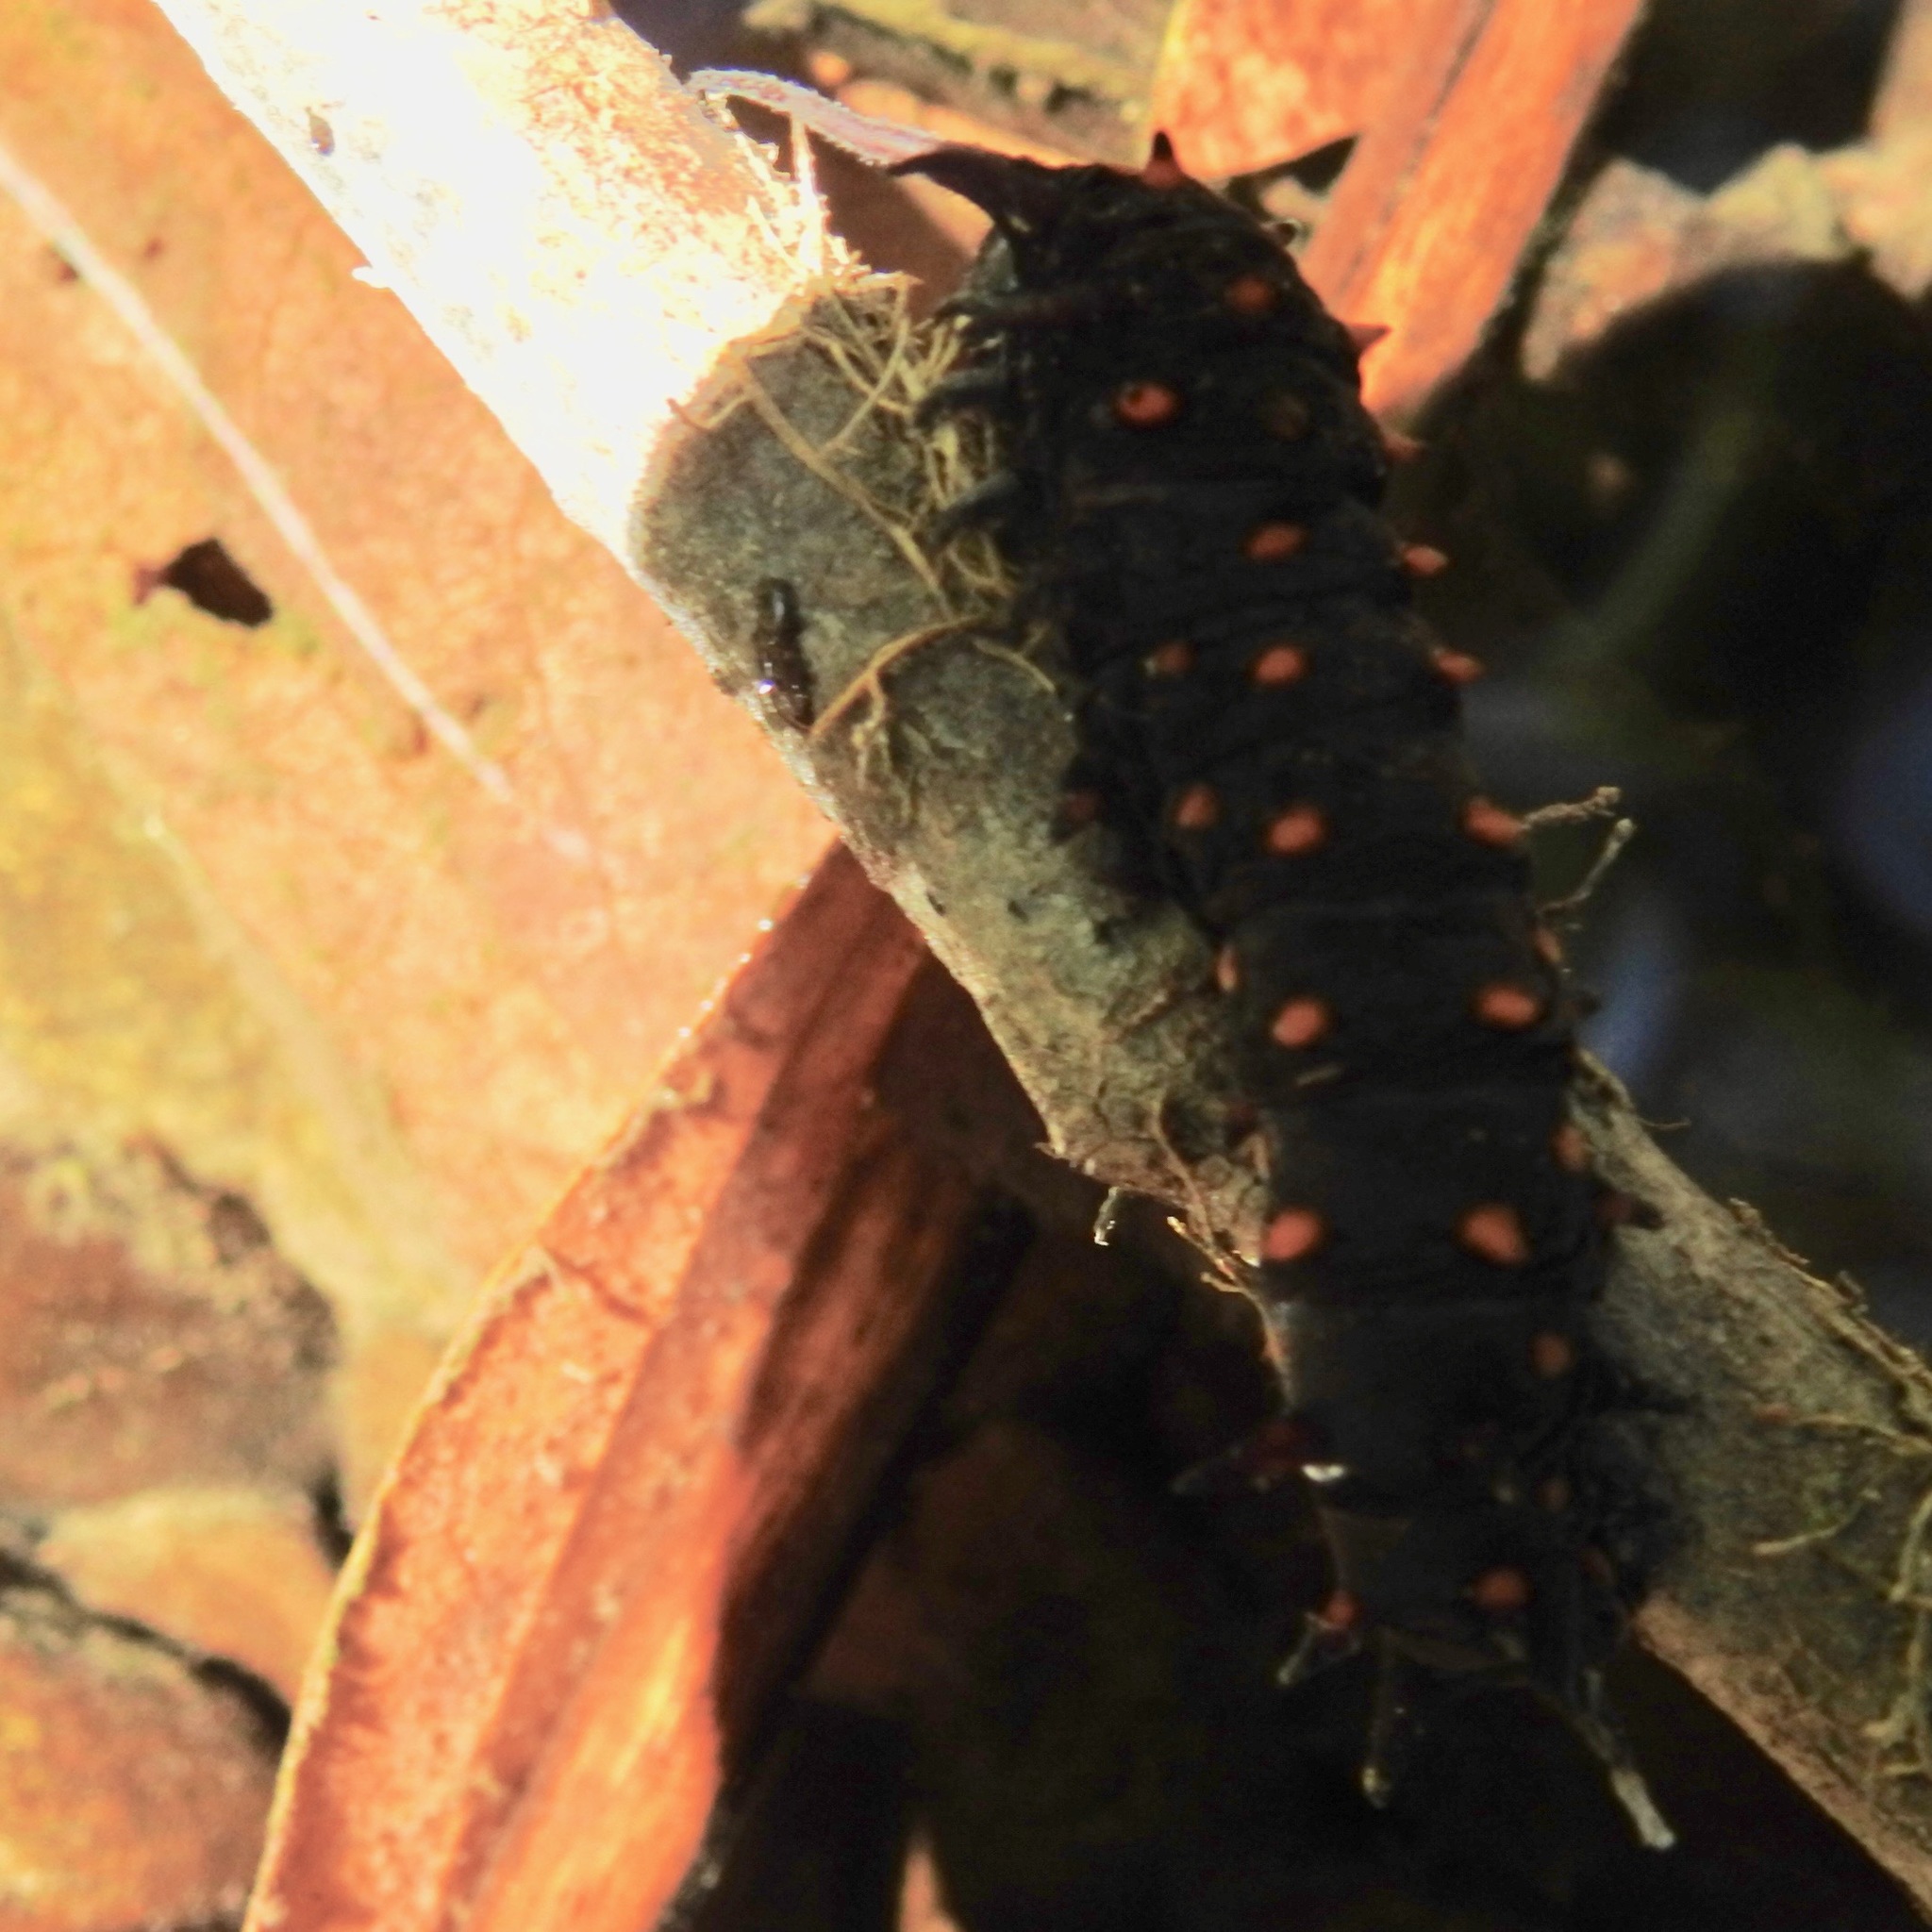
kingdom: Animalia
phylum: Arthropoda
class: Insecta
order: Lepidoptera
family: Papilionidae
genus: Battus
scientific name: Battus philenor
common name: Pipevine swallowtail
